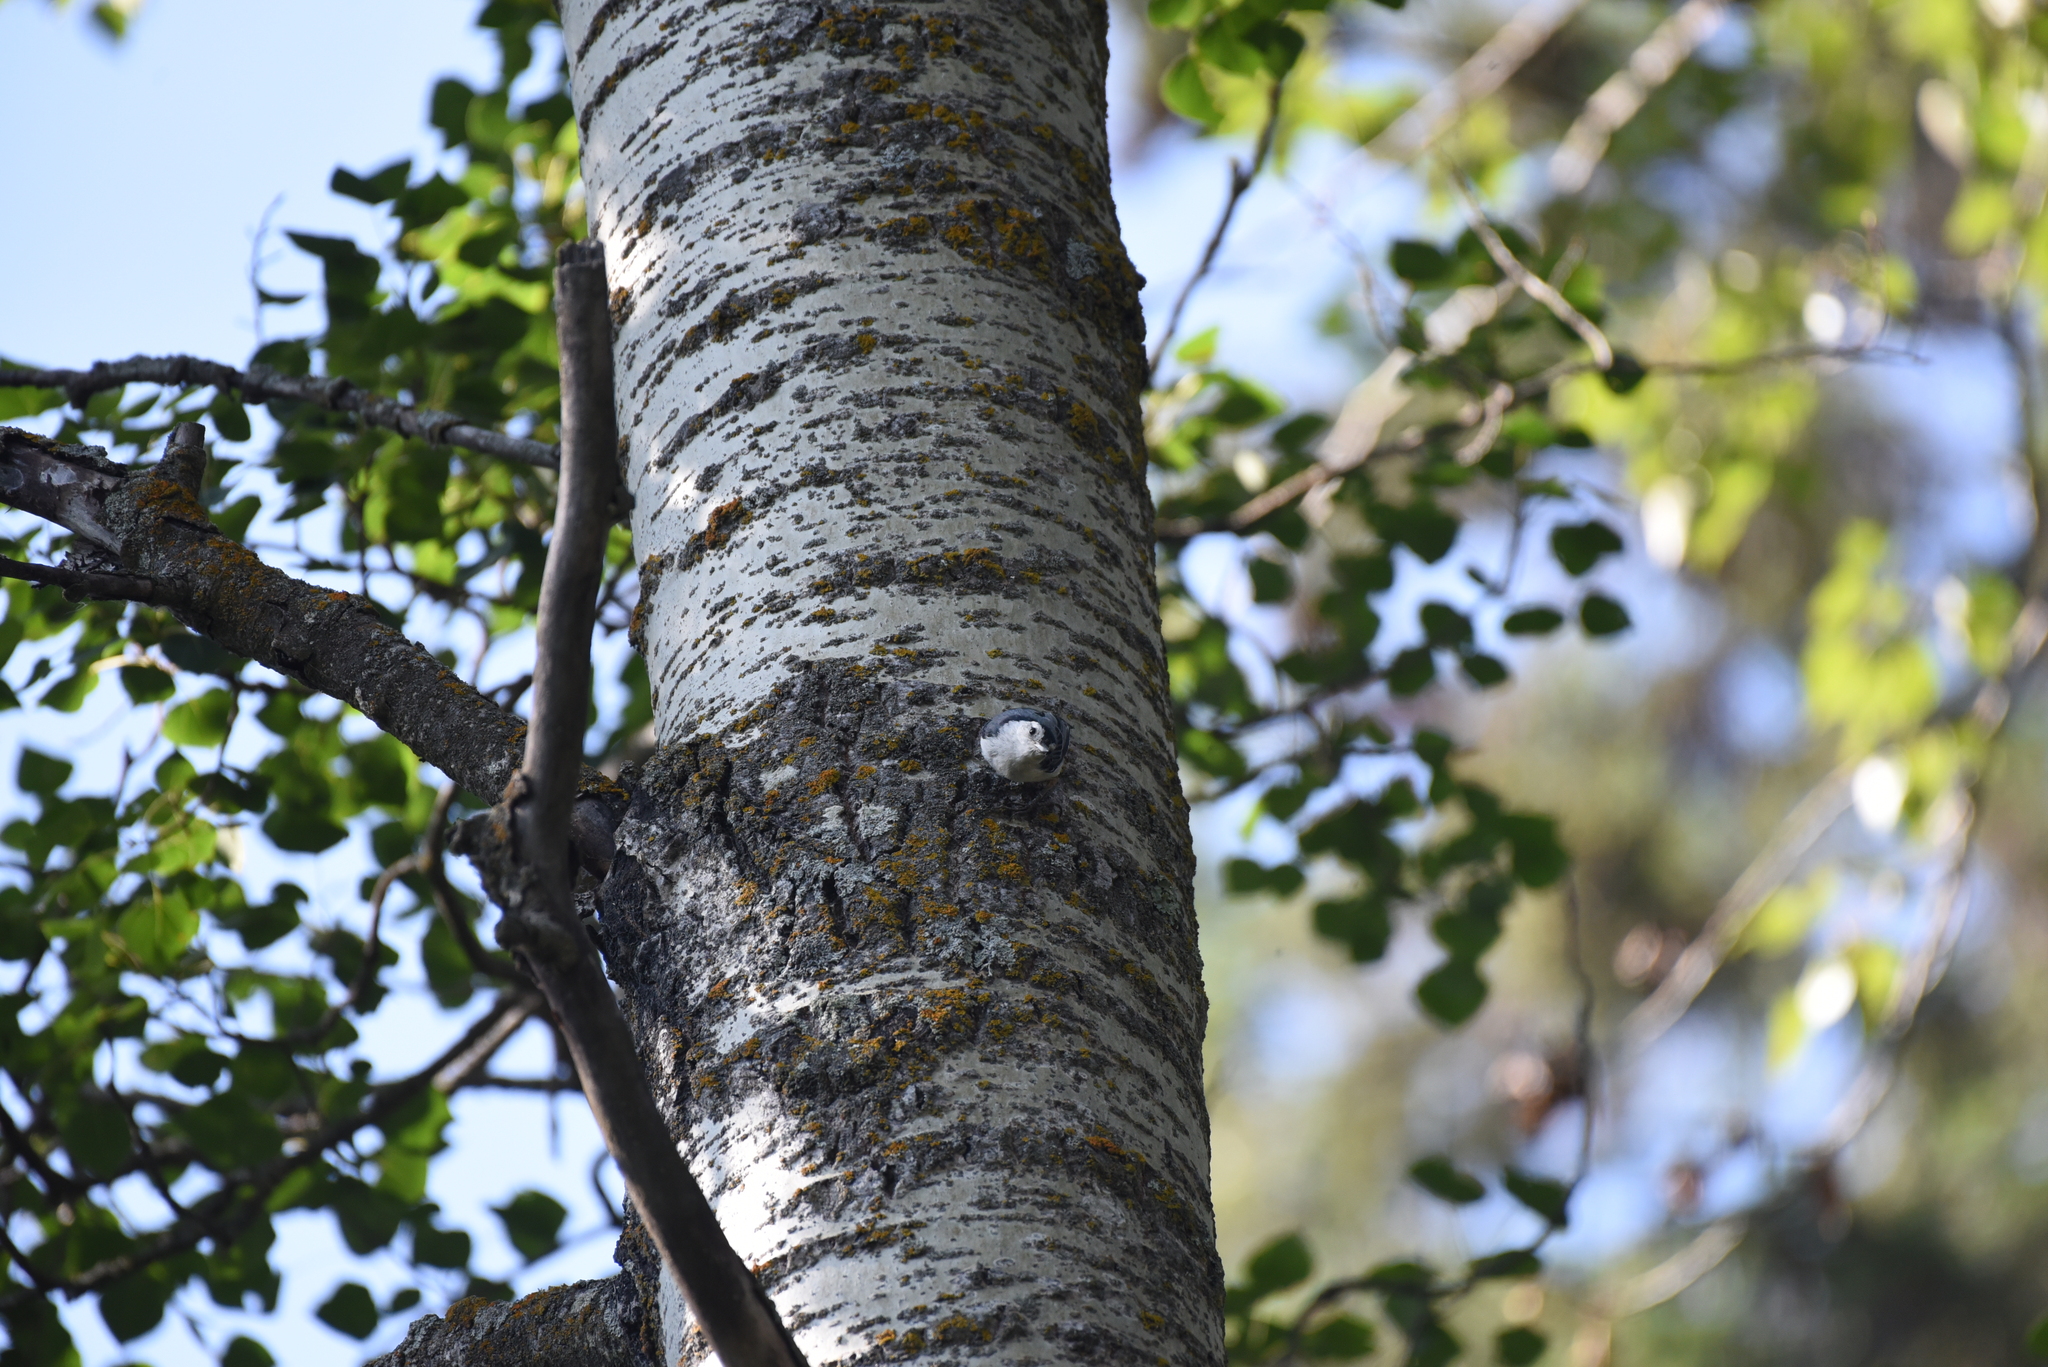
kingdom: Animalia
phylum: Chordata
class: Aves
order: Passeriformes
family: Sittidae
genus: Sitta
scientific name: Sitta carolinensis
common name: White-breasted nuthatch
